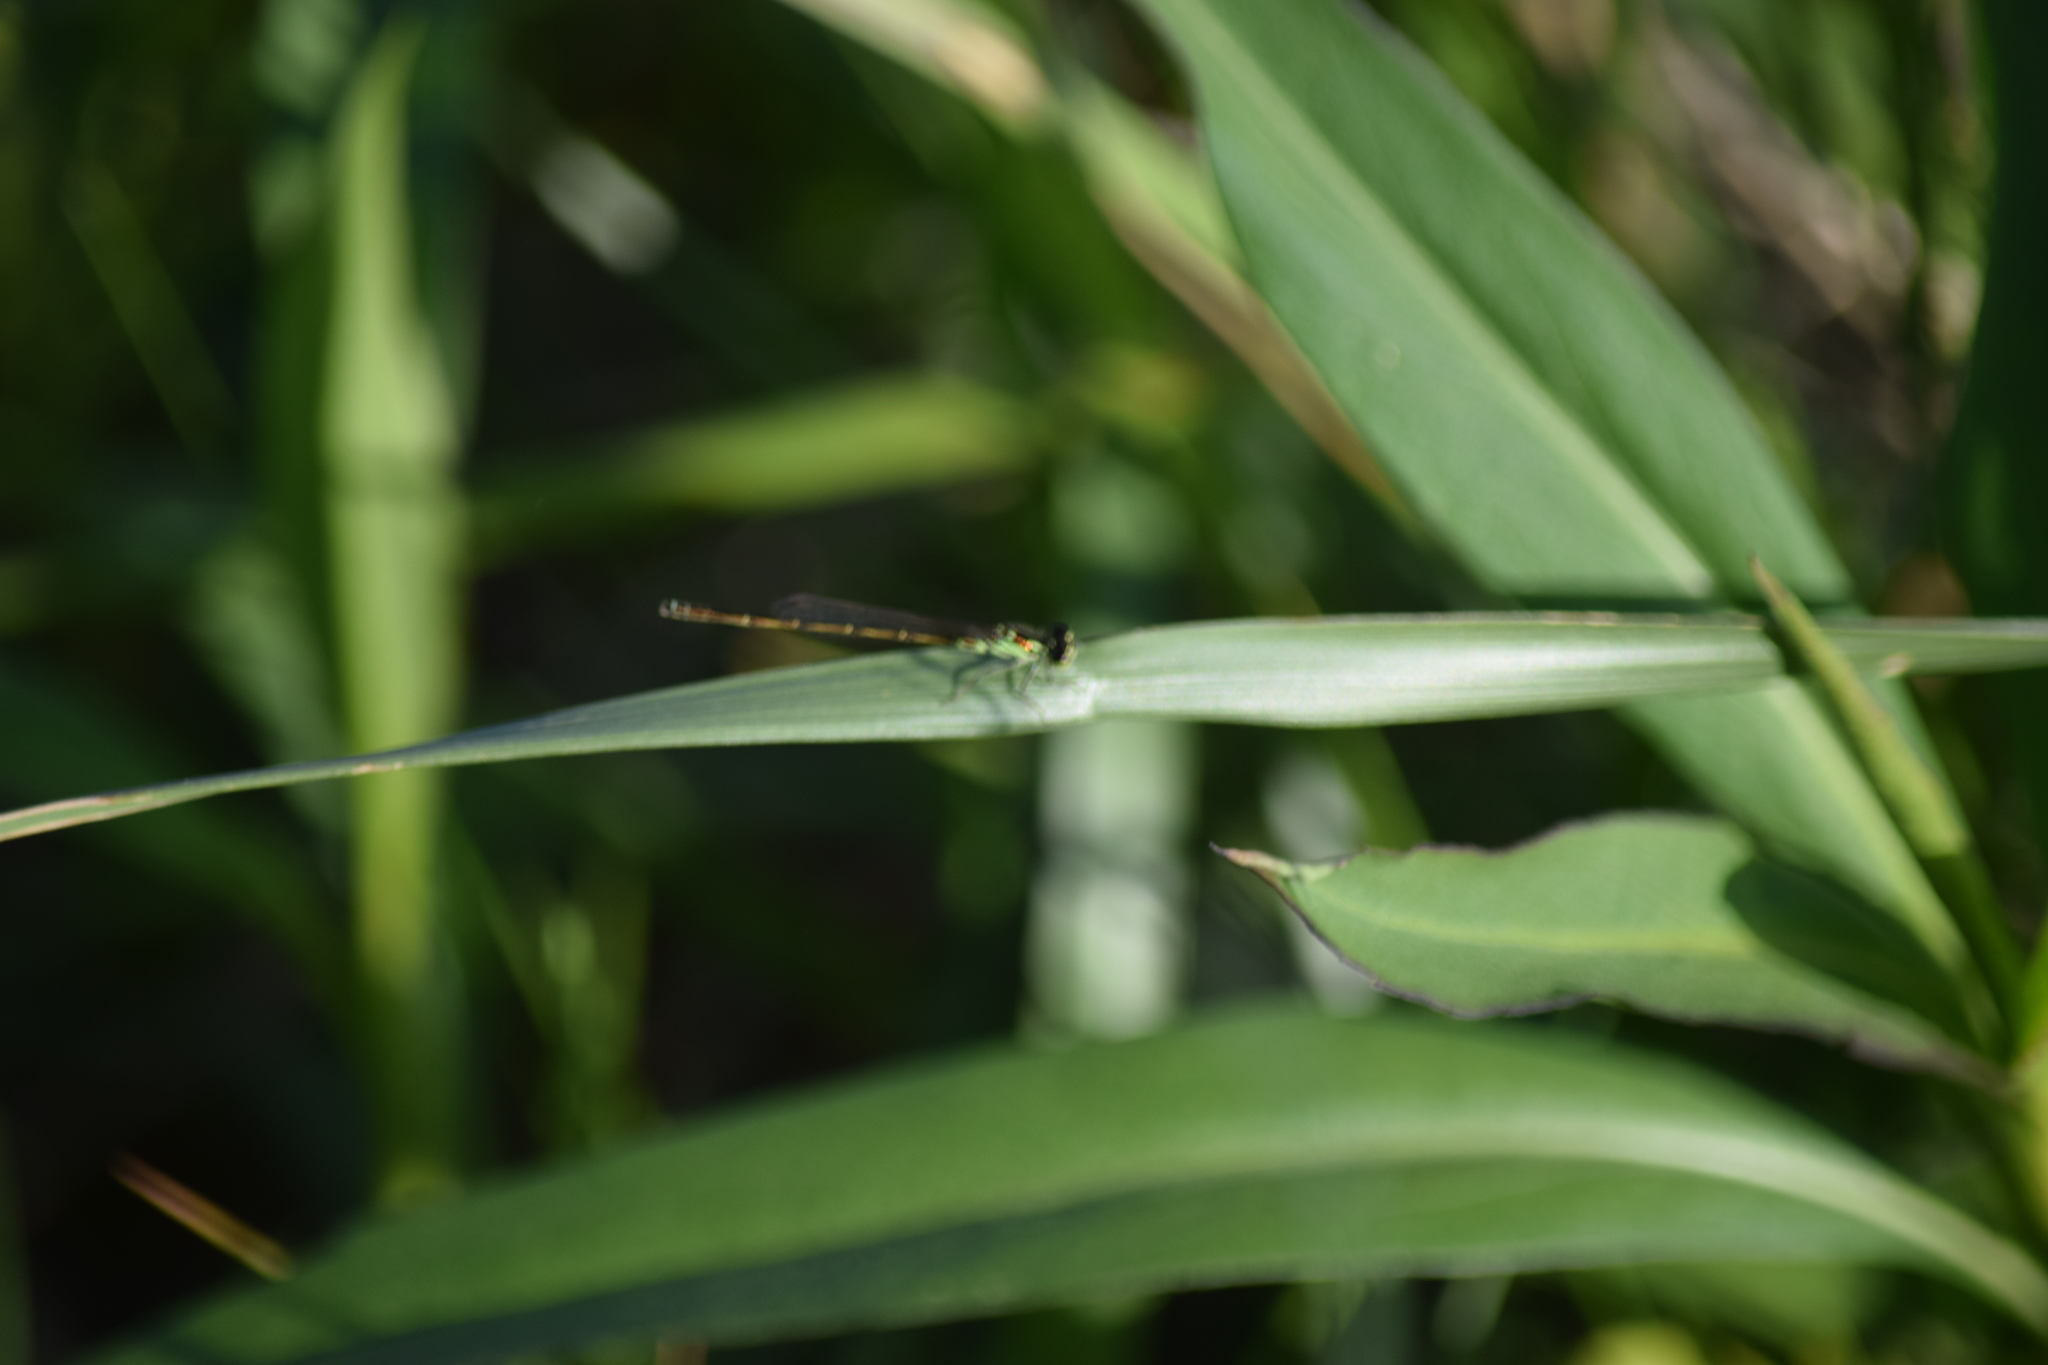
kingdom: Animalia
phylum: Arthropoda
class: Insecta
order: Odonata
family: Coenagrionidae
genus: Ischnura
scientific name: Ischnura posita
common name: Fragile forktail
